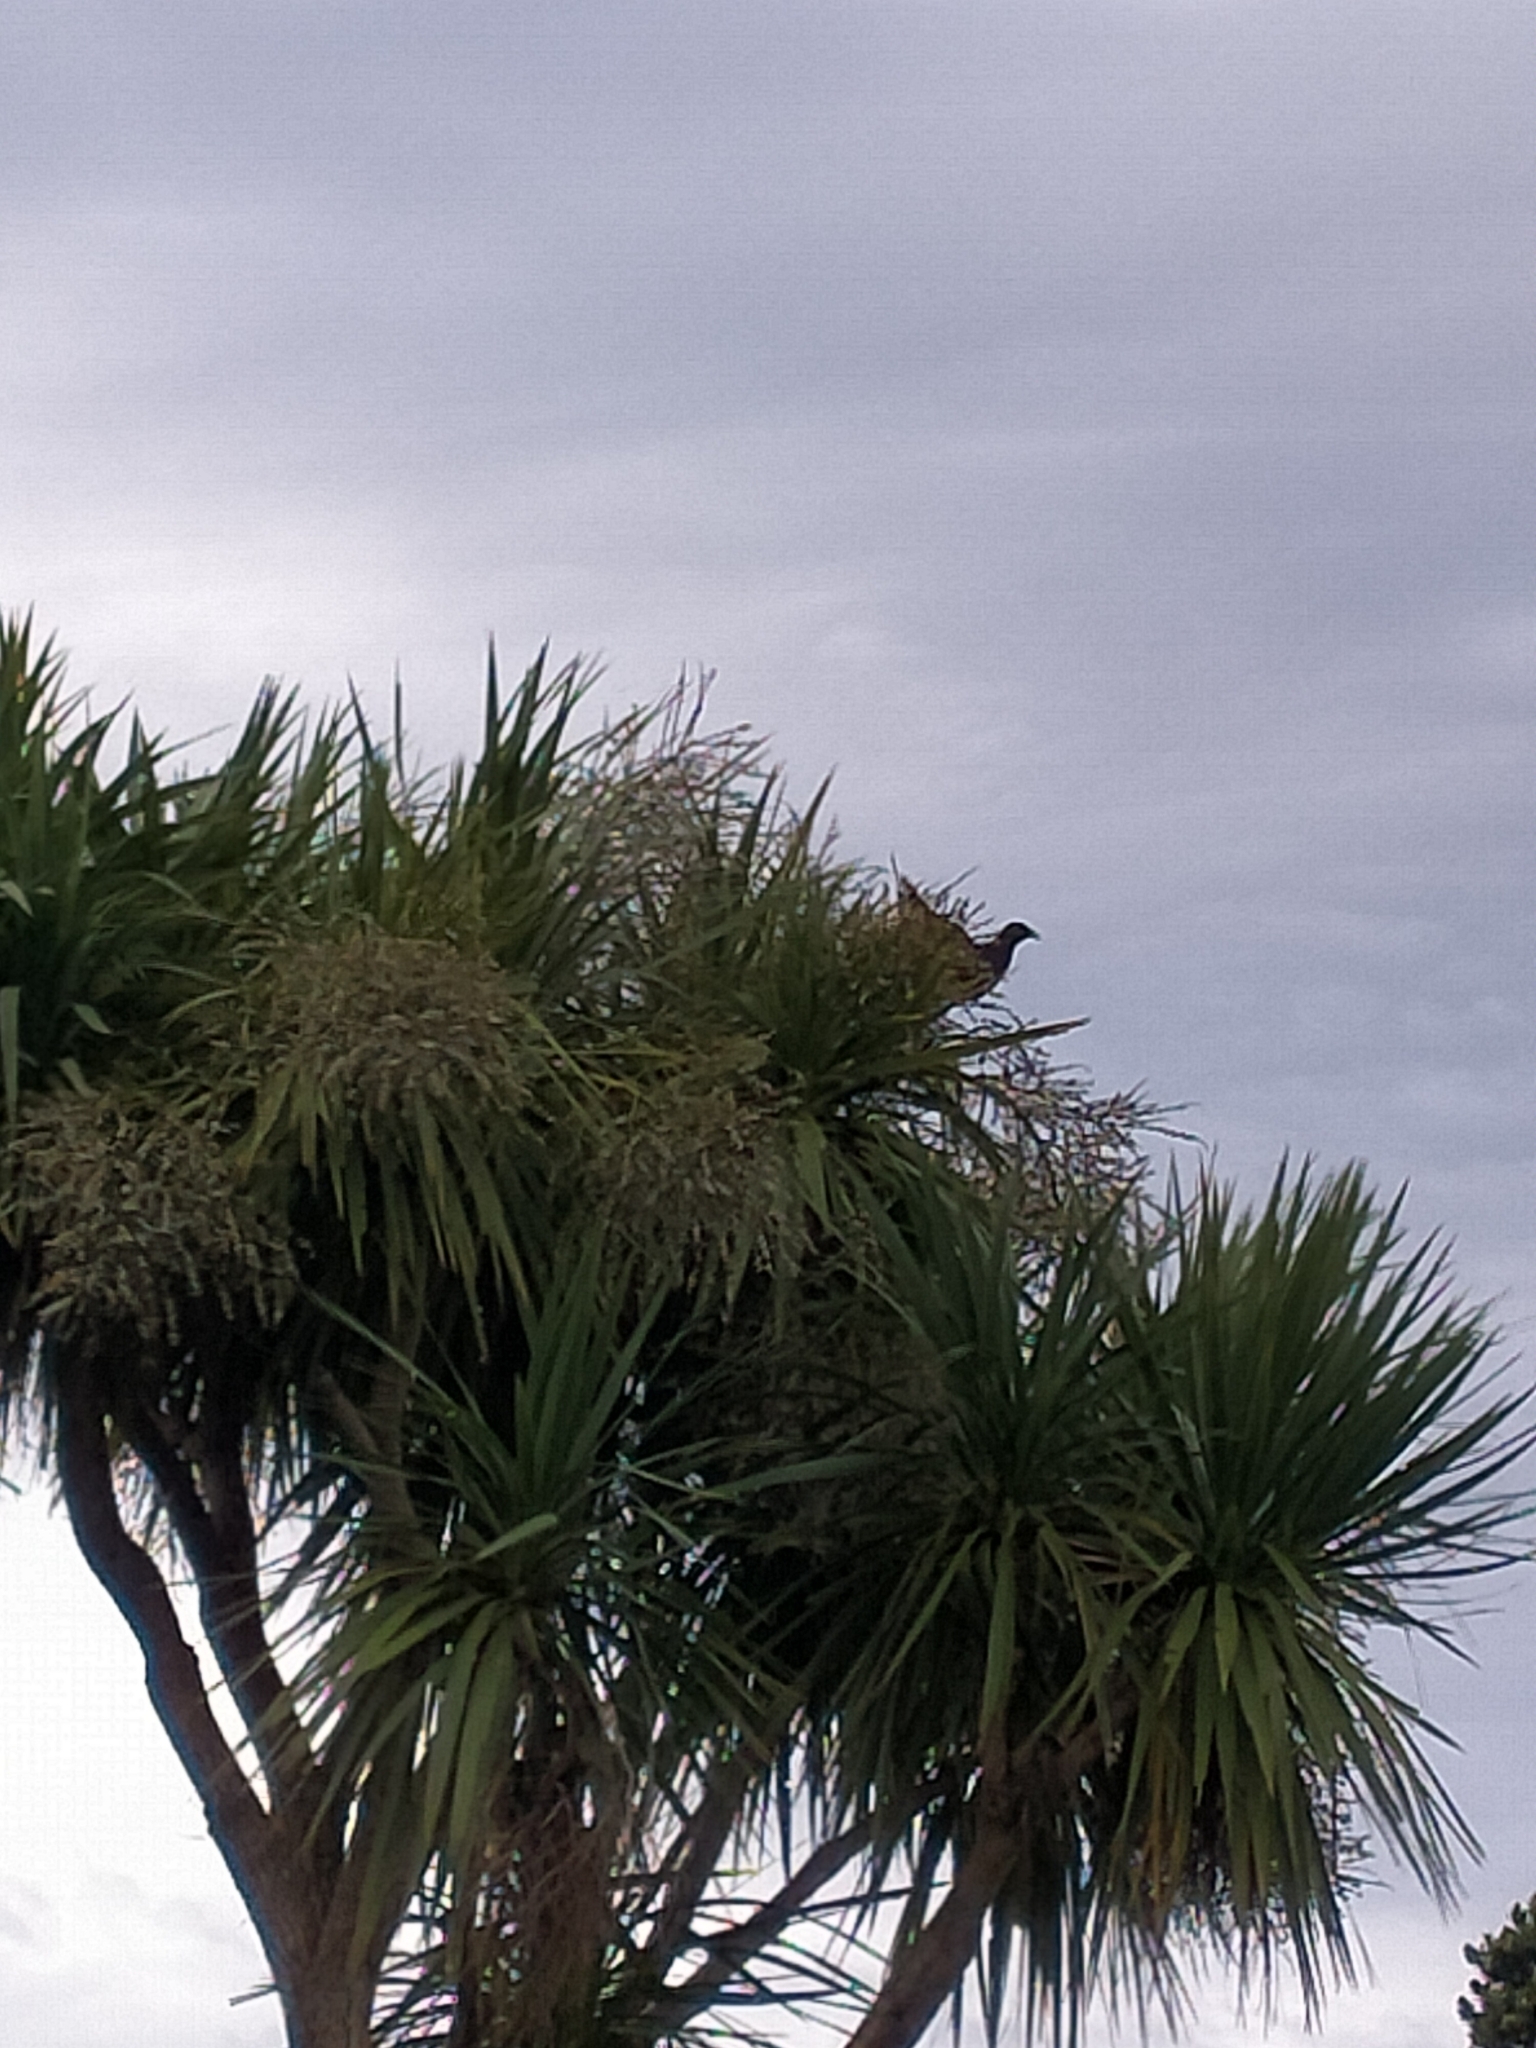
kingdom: Animalia
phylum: Chordata
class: Aves
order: Columbiformes
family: Columbidae
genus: Hemiphaga
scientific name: Hemiphaga novaeseelandiae
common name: New zealand pigeon
